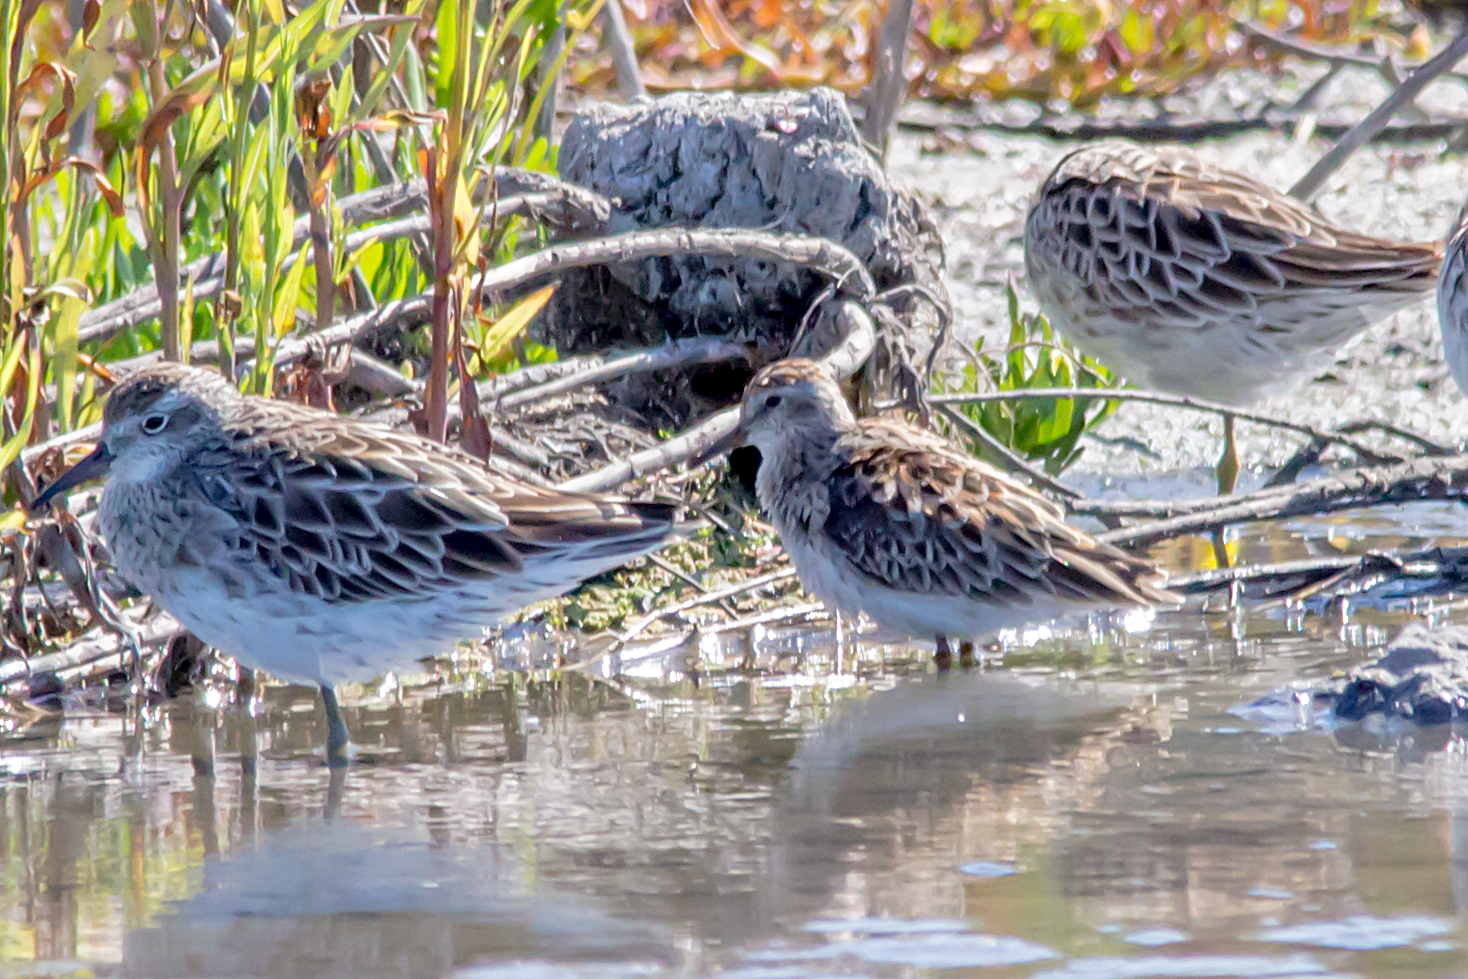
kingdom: Animalia
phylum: Chordata
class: Aves
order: Charadriiformes
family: Scolopacidae
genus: Calidris
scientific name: Calidris subminuta
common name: Long-toed stint
